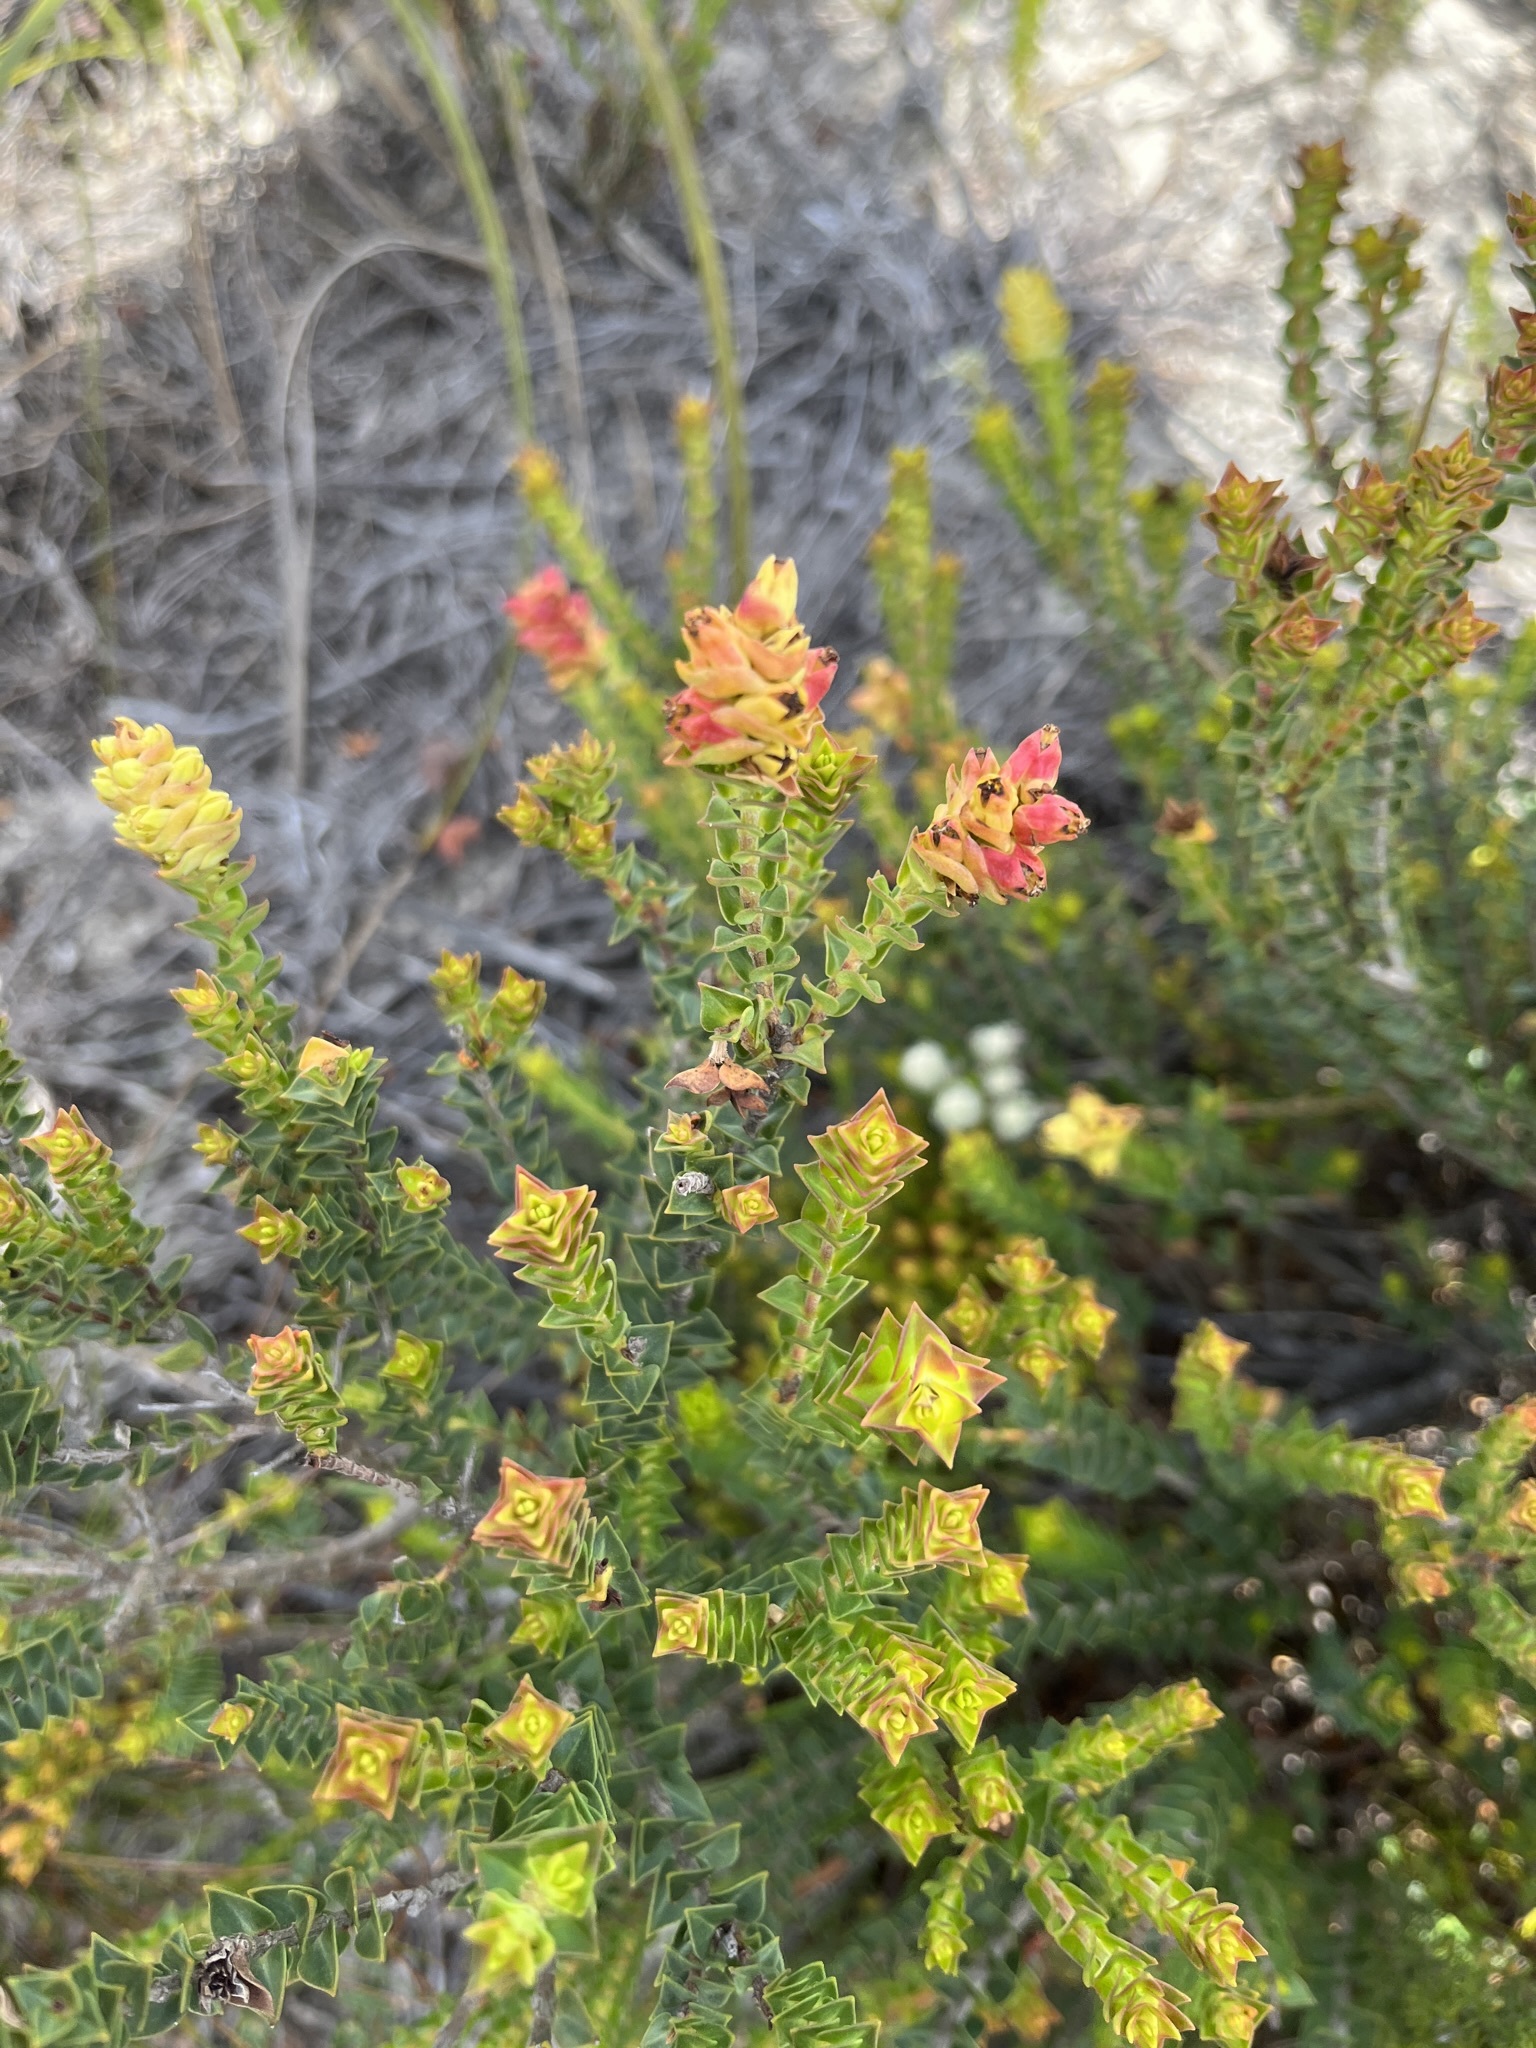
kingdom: Plantae
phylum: Tracheophyta
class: Magnoliopsida
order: Myrtales
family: Penaeaceae
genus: Penaea
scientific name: Penaea mucronata
